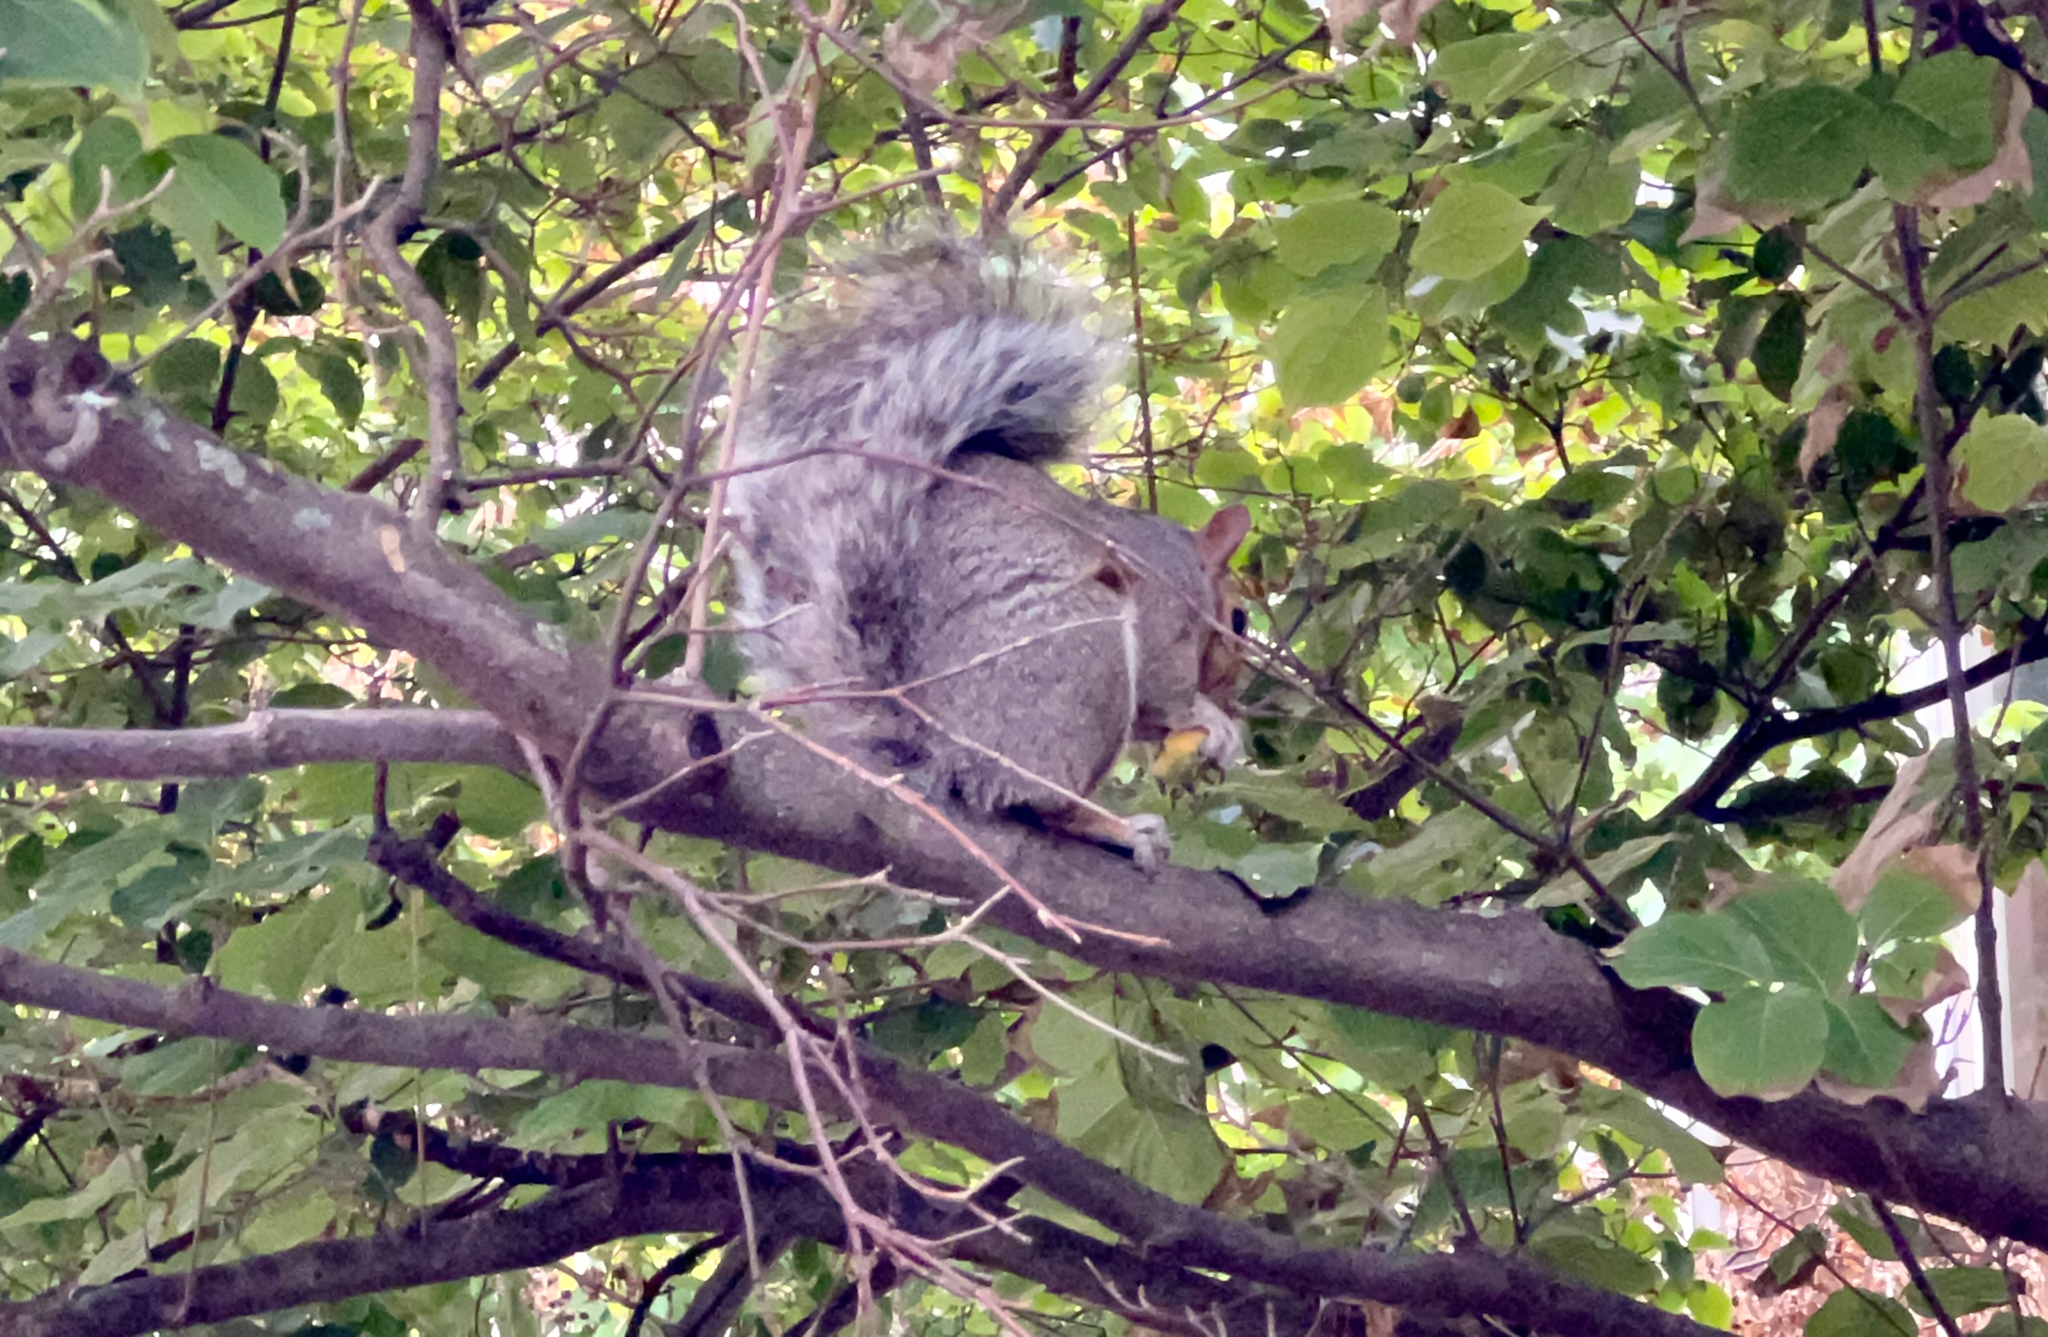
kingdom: Animalia
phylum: Chordata
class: Mammalia
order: Rodentia
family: Sciuridae
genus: Sciurus
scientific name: Sciurus carolinensis
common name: Eastern gray squirrel
